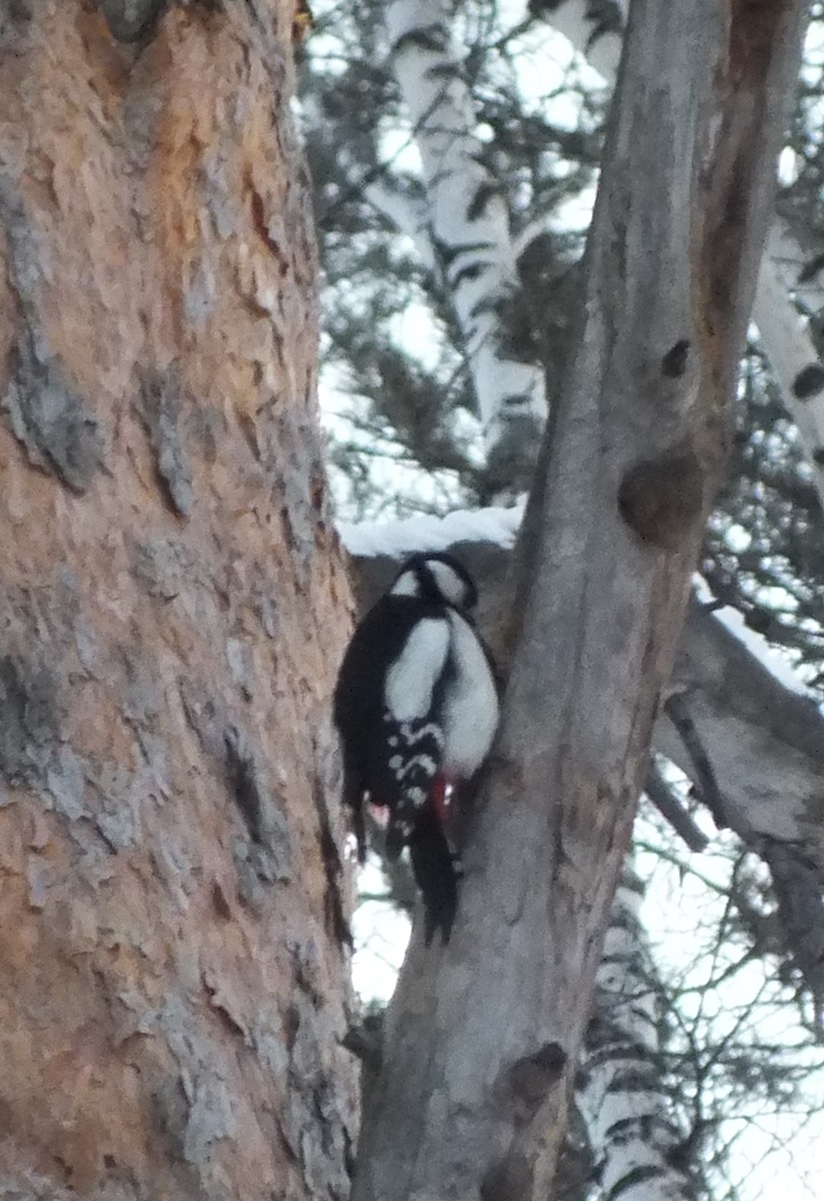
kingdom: Animalia
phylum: Chordata
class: Aves
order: Piciformes
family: Picidae
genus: Dendrocopos
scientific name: Dendrocopos major
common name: Great spotted woodpecker
